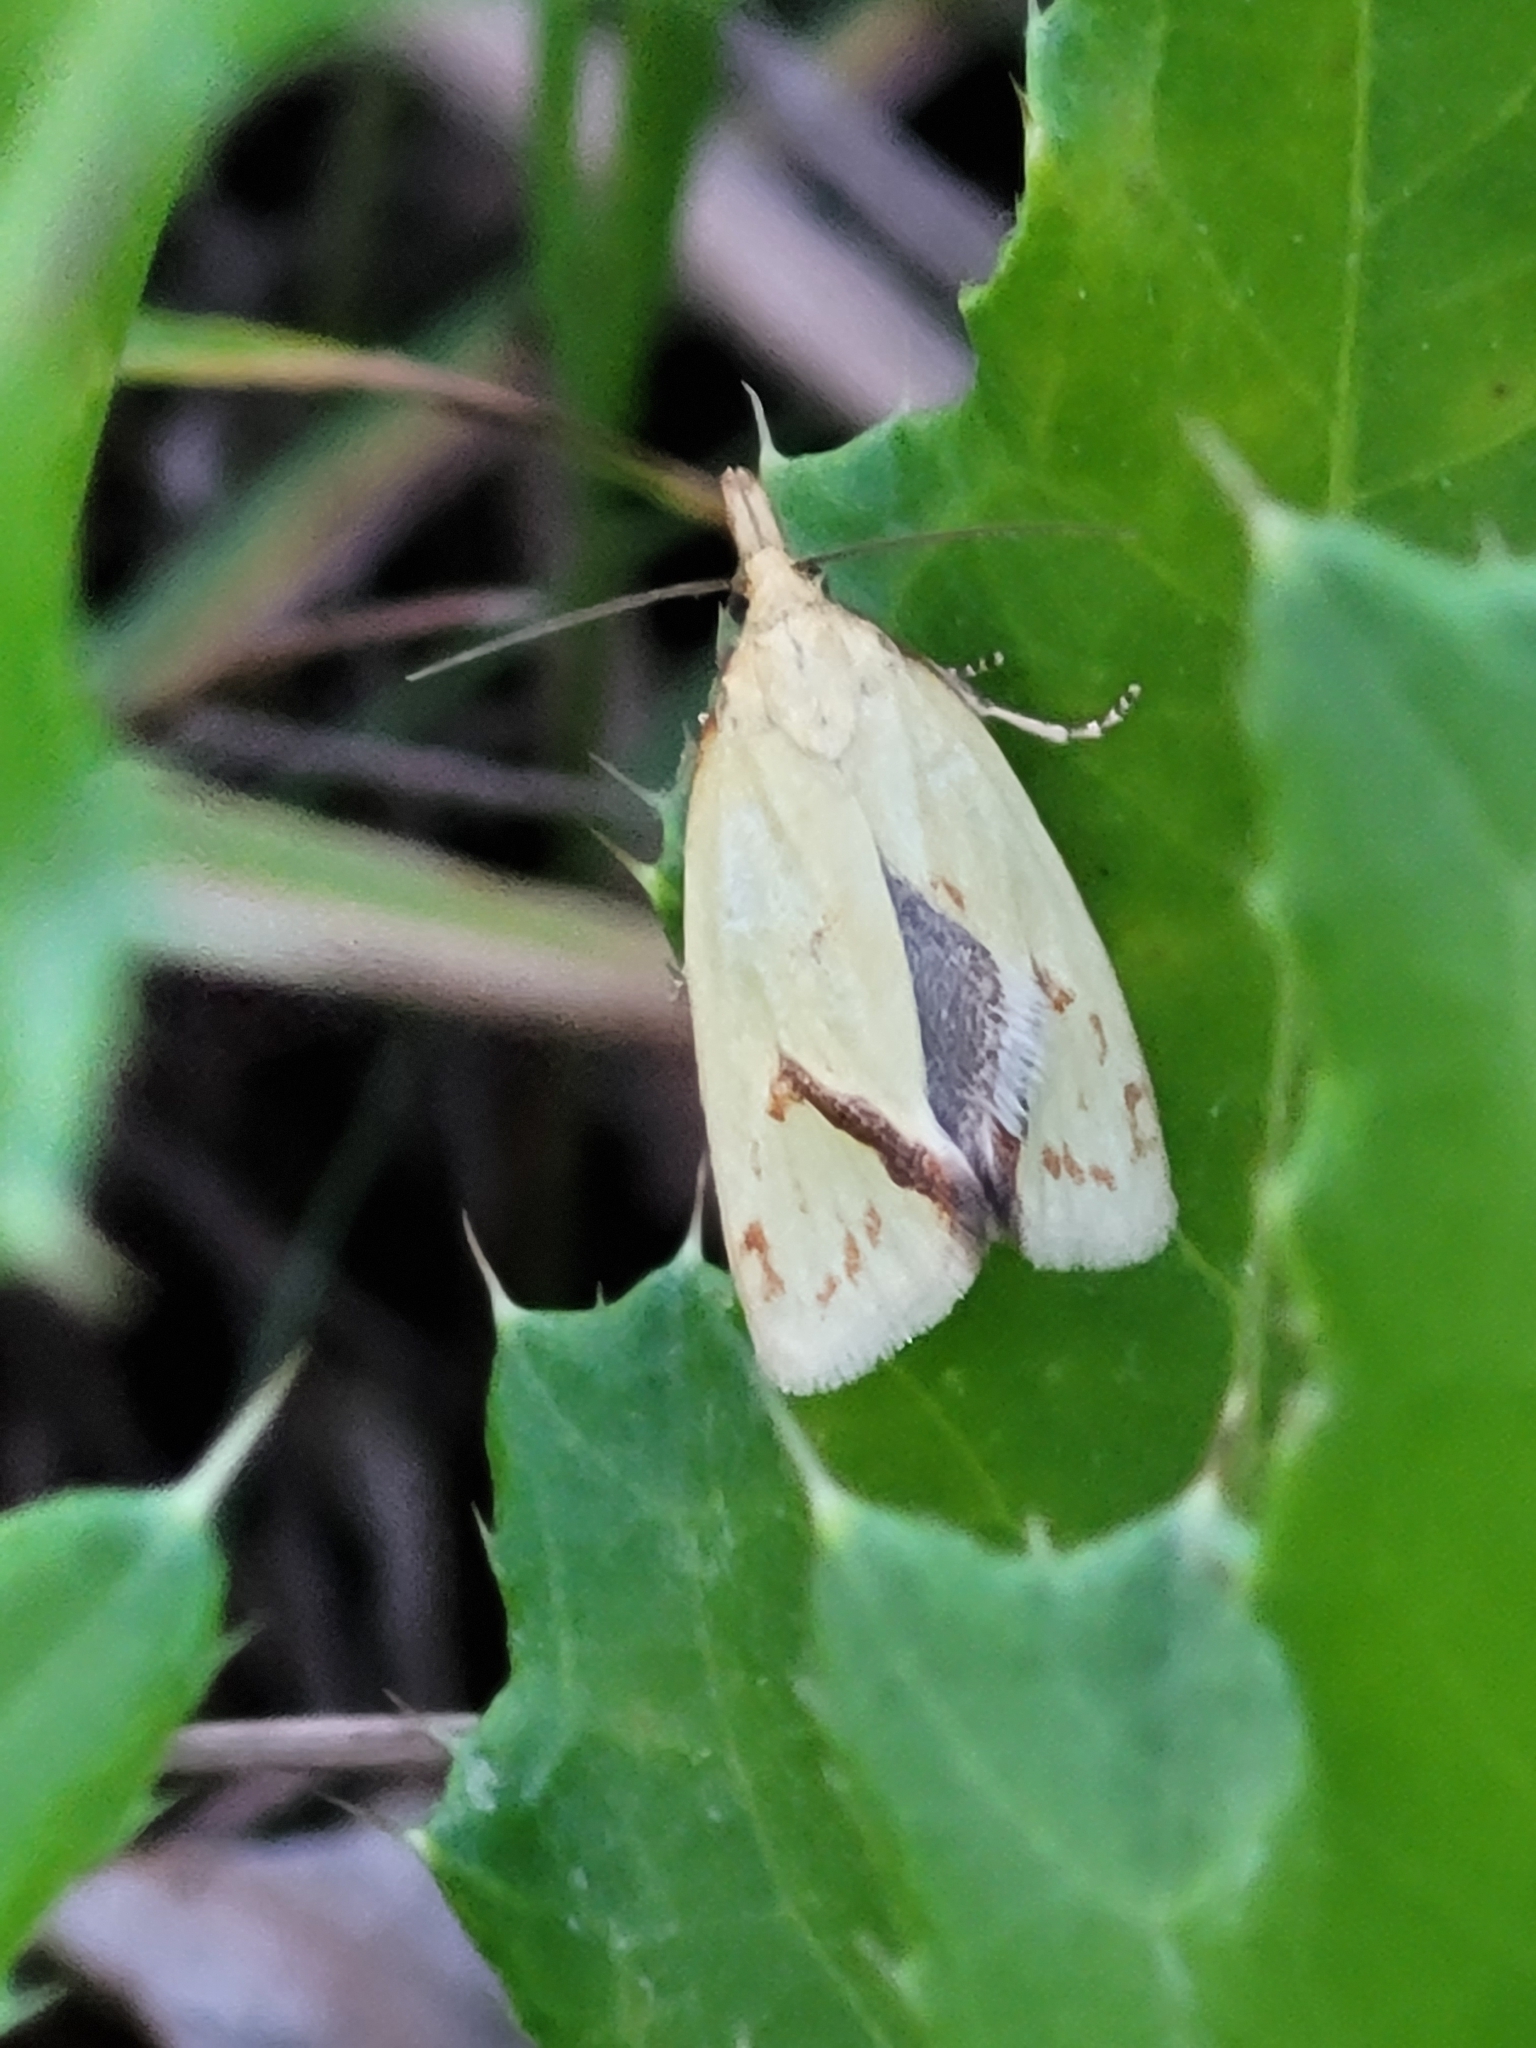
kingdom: Animalia
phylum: Arthropoda
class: Insecta
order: Lepidoptera
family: Tortricidae
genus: Agapeta
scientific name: Agapeta hamana
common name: Common yellow conch
